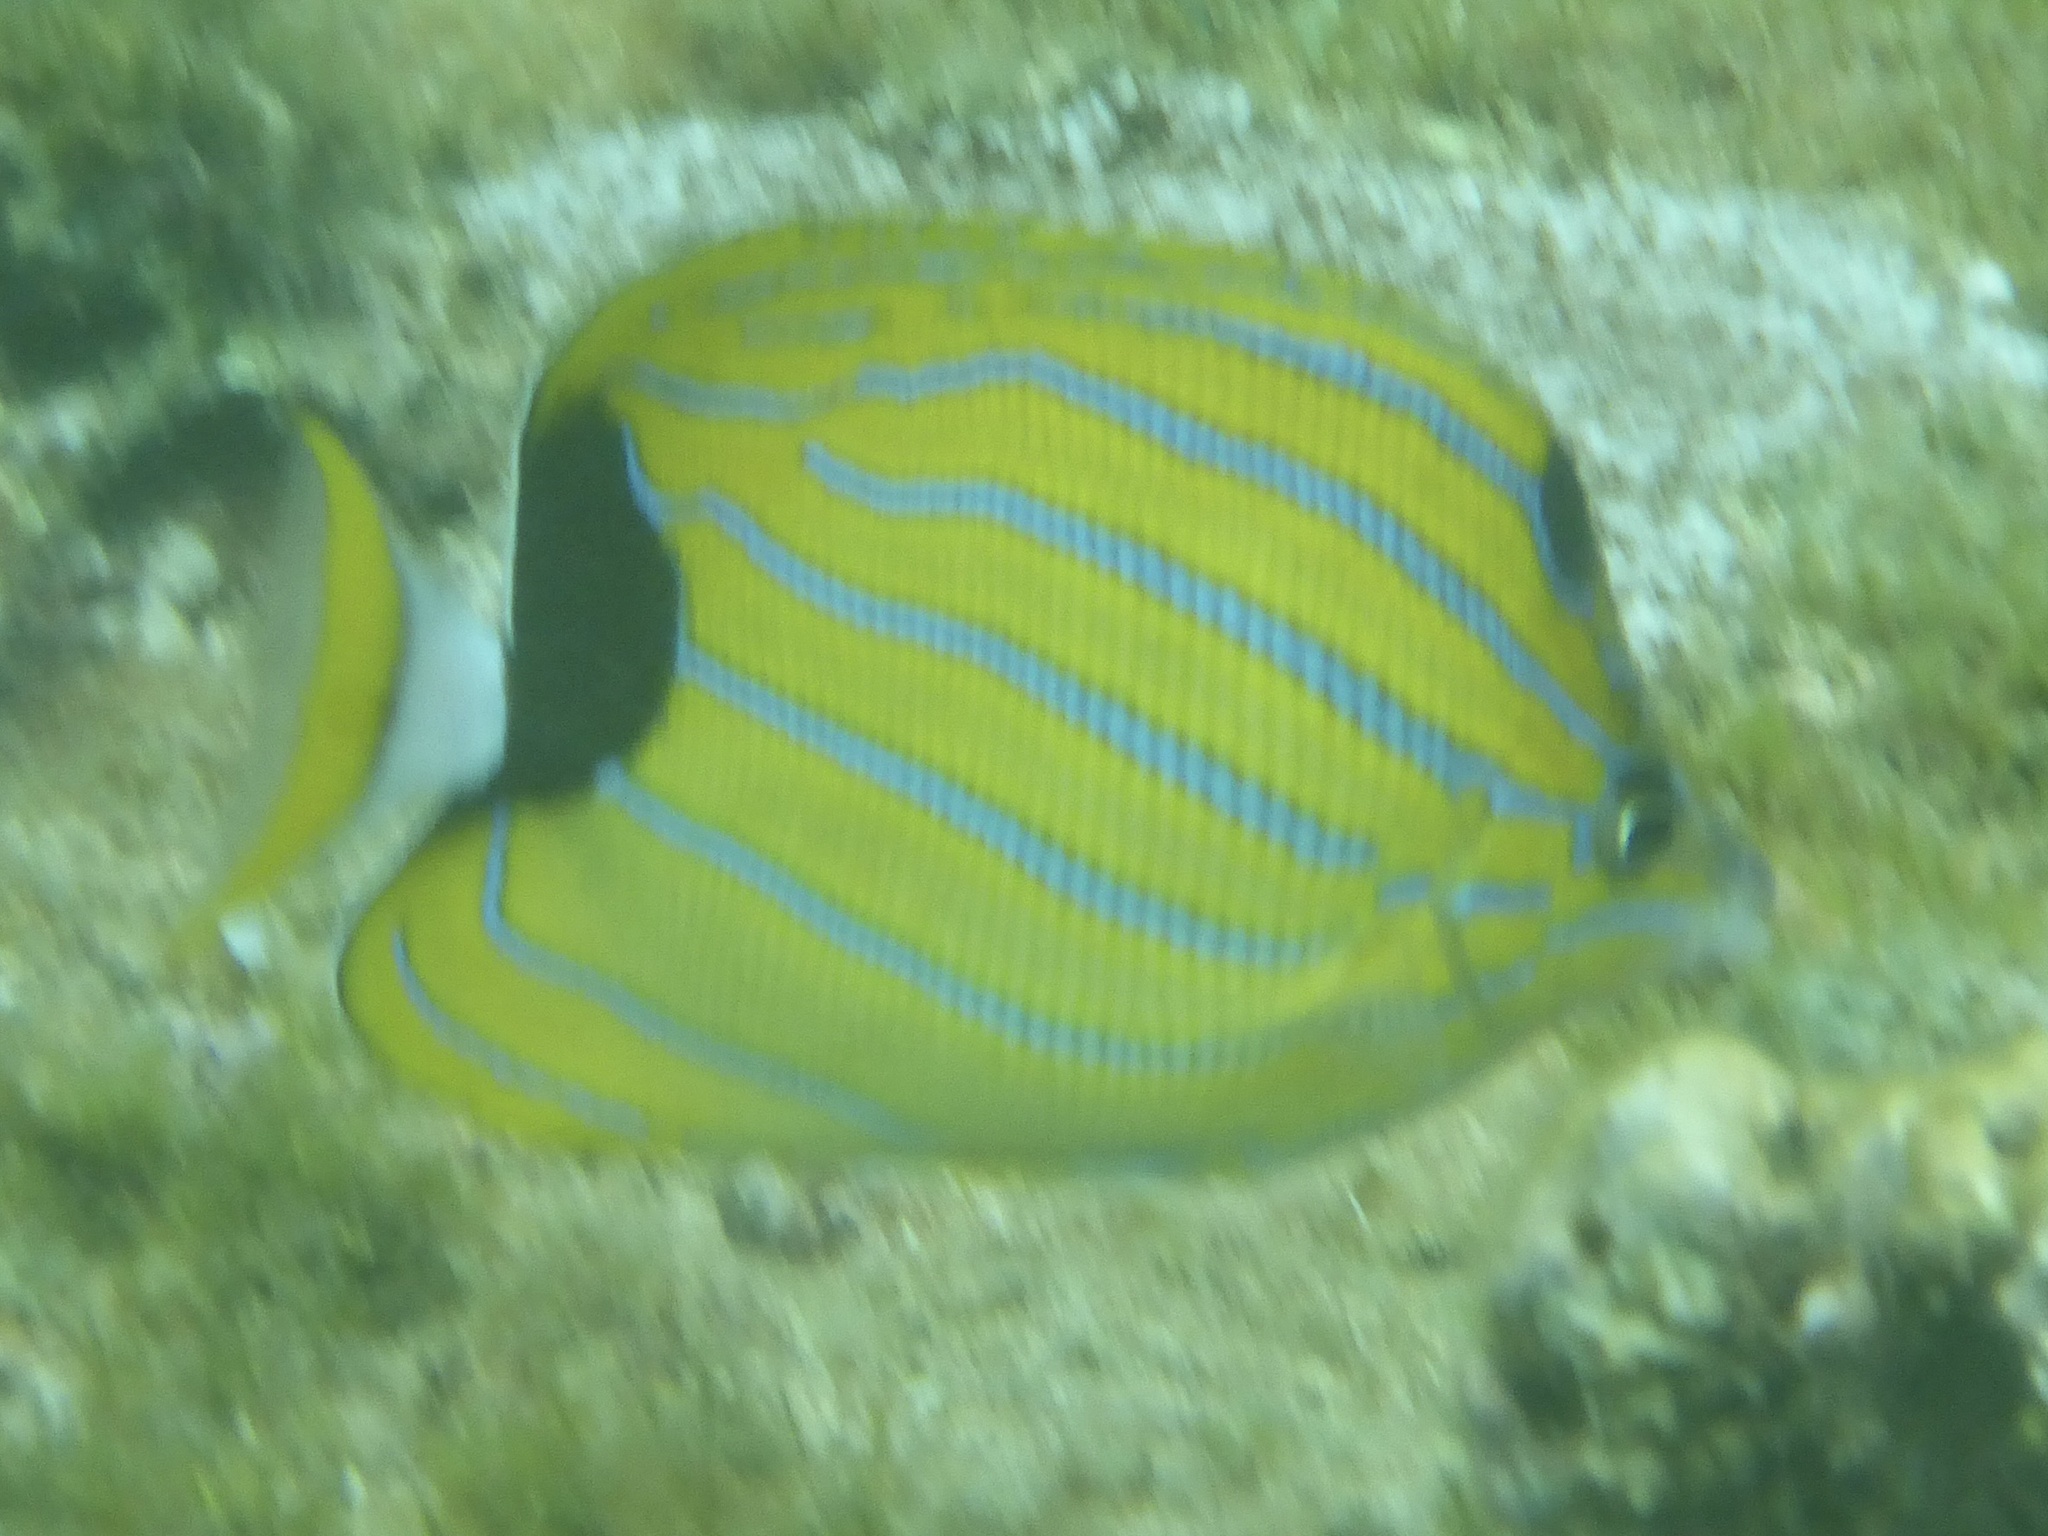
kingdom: Animalia
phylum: Chordata
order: Perciformes
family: Chaetodontidae
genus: Chaetodon
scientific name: Chaetodon fremblii
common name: Bluestriped butterflyfish
